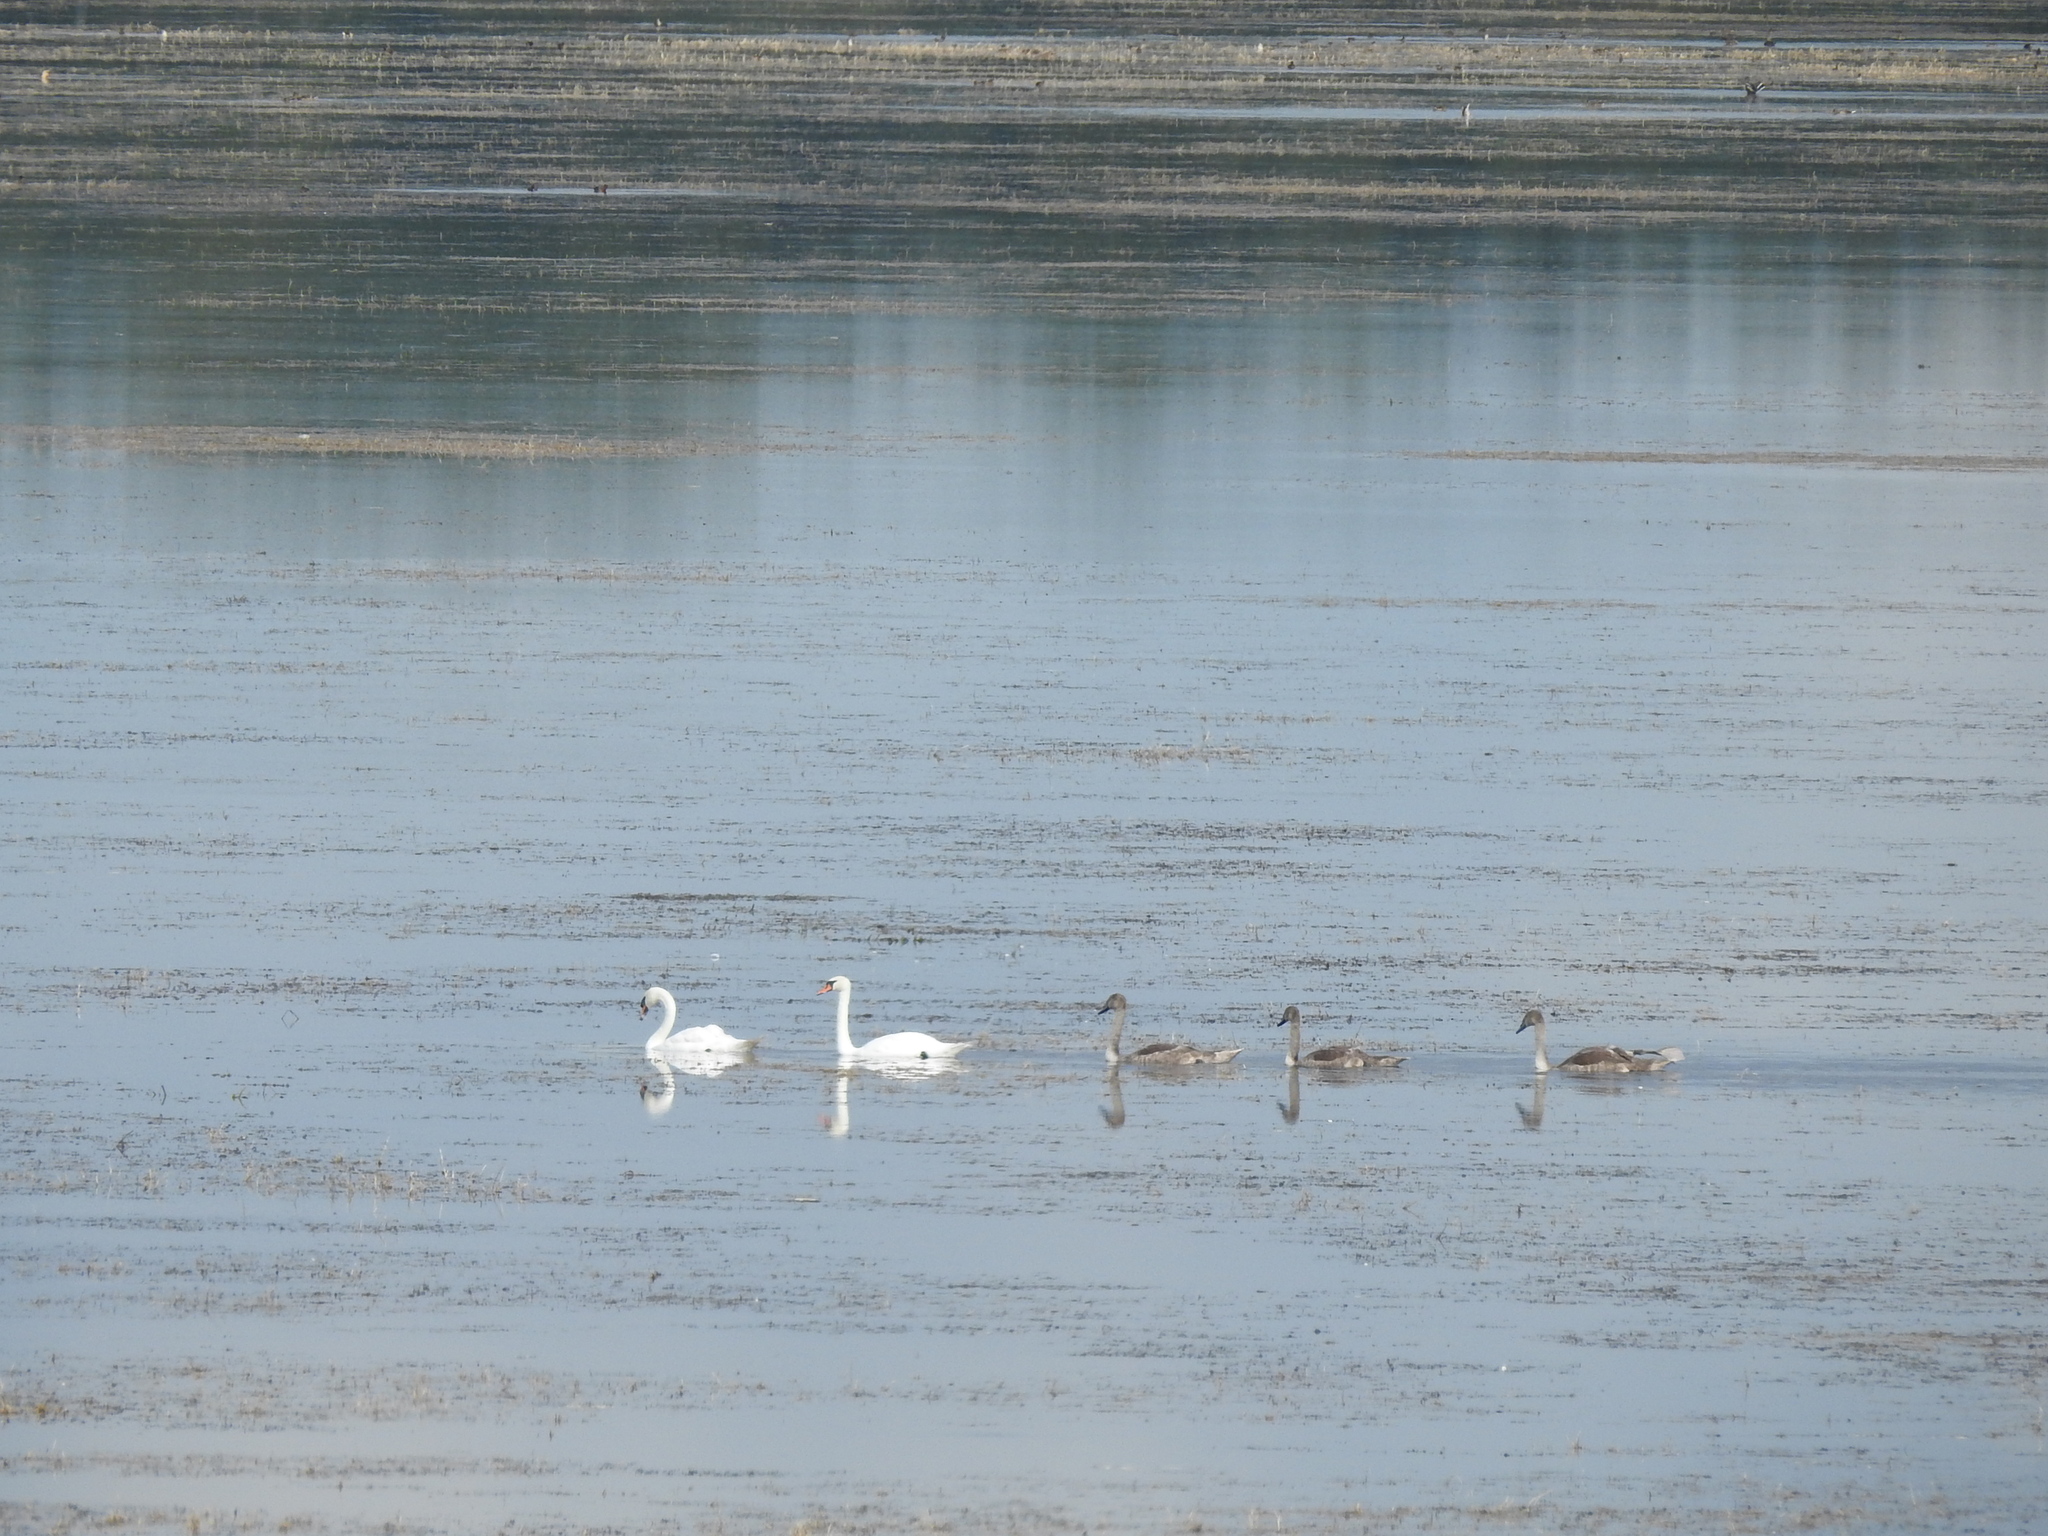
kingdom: Animalia
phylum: Chordata
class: Aves
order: Anseriformes
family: Anatidae
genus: Cygnus
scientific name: Cygnus olor
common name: Mute swan
